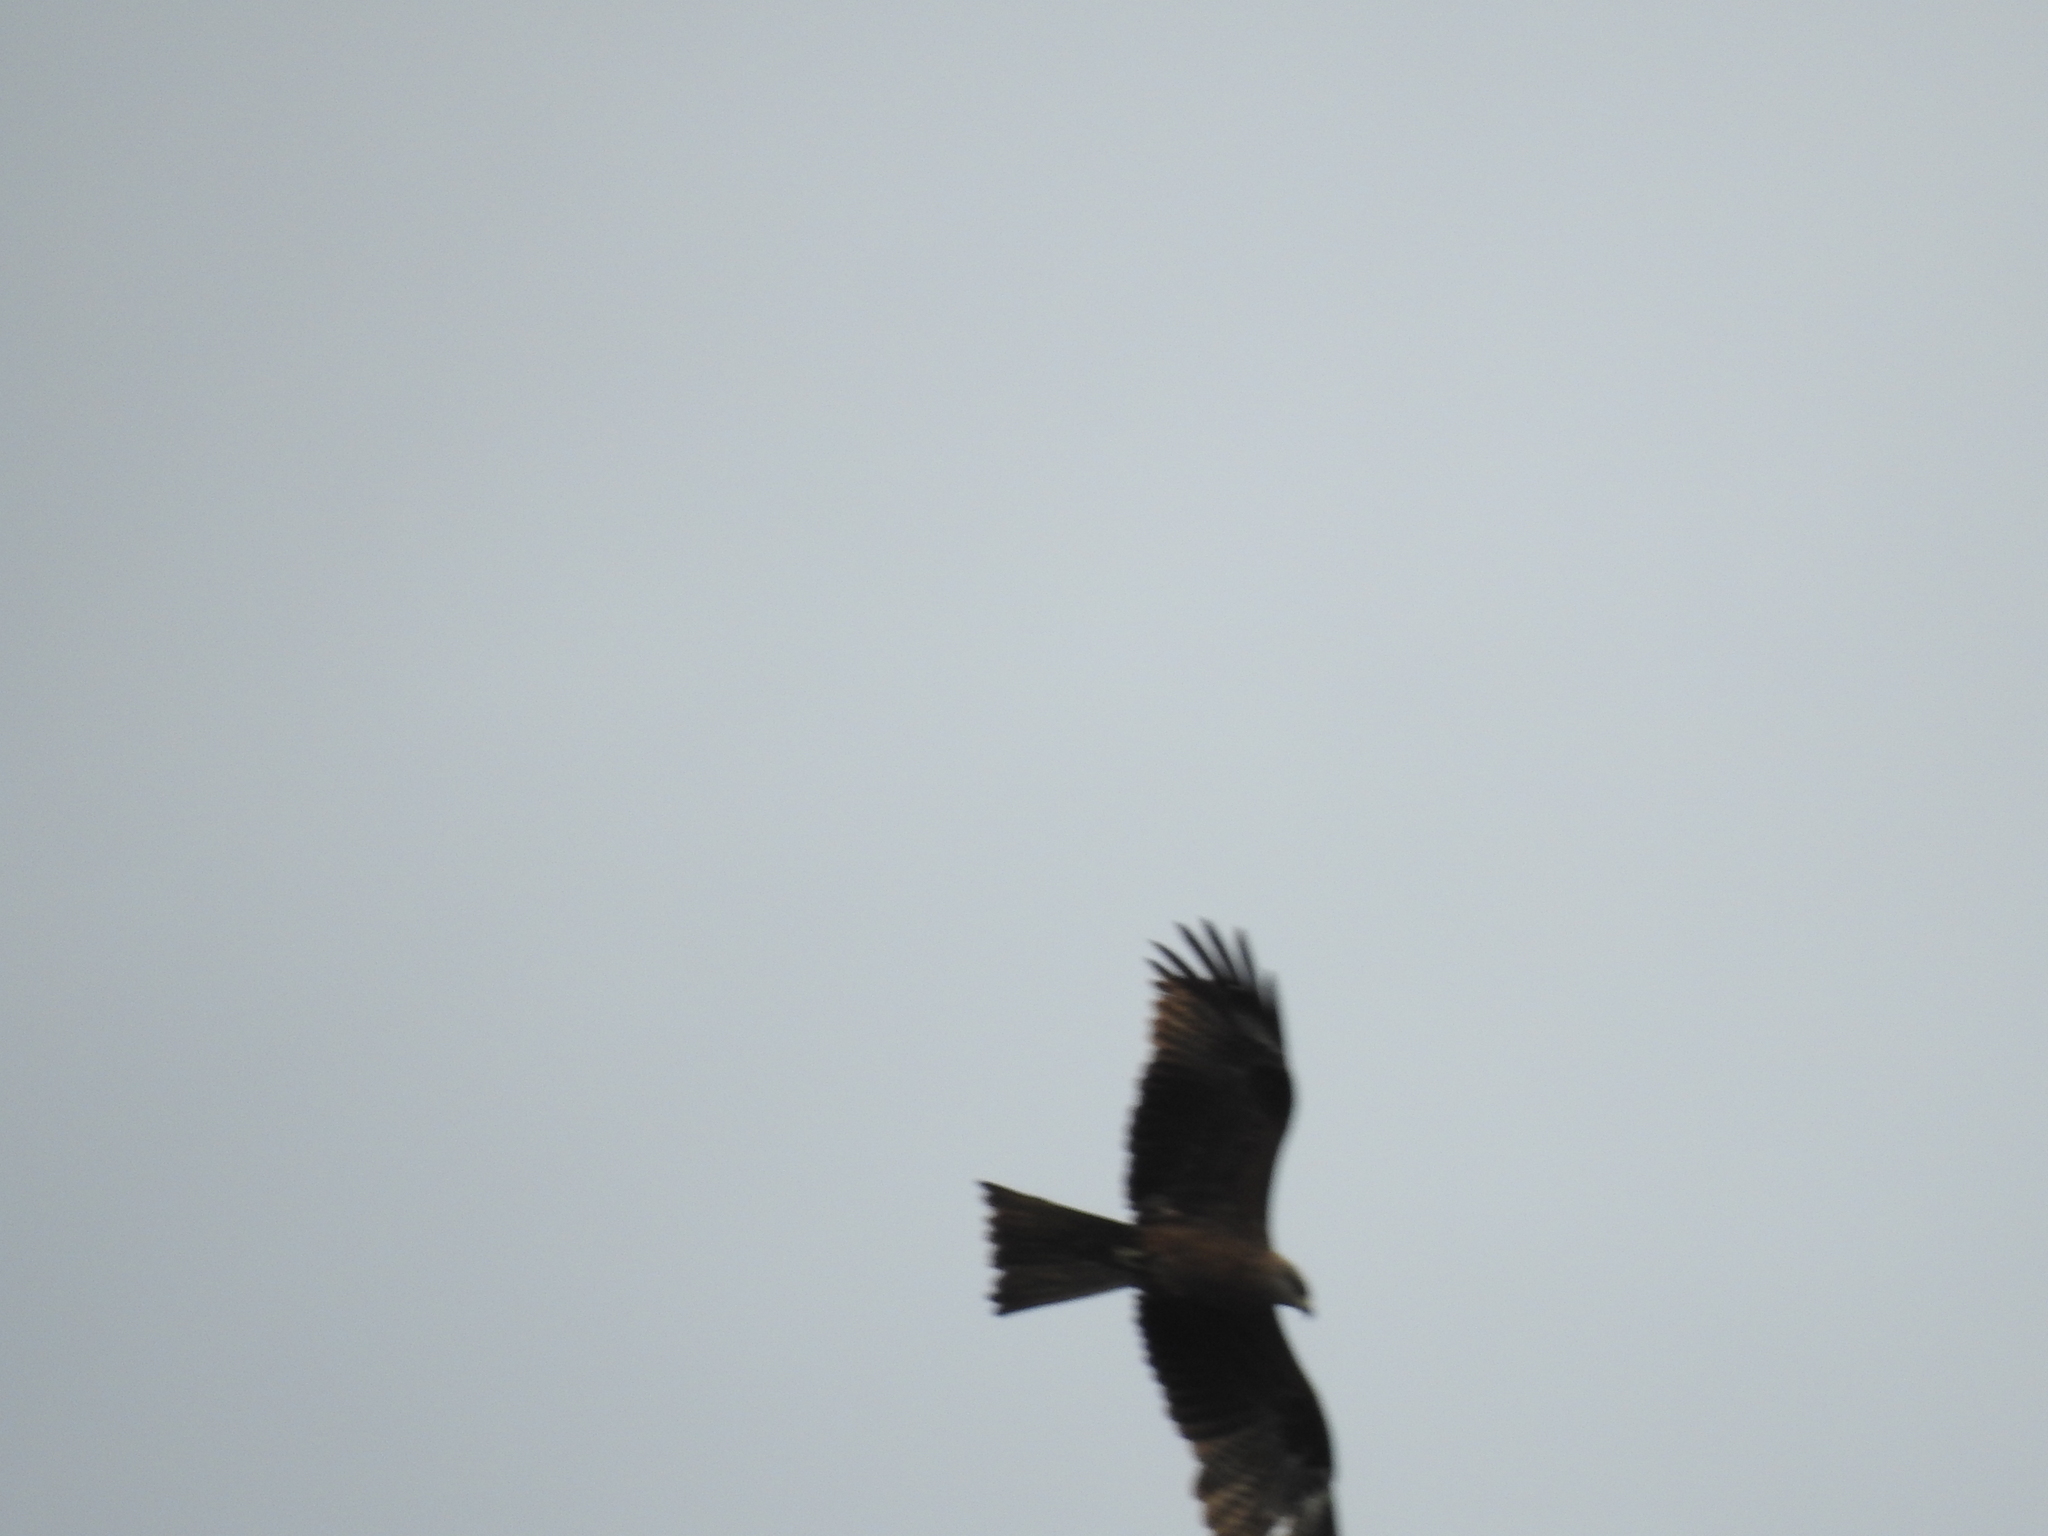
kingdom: Animalia
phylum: Chordata
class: Aves
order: Accipitriformes
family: Accipitridae
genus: Milvus
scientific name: Milvus migrans
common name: Black kite
